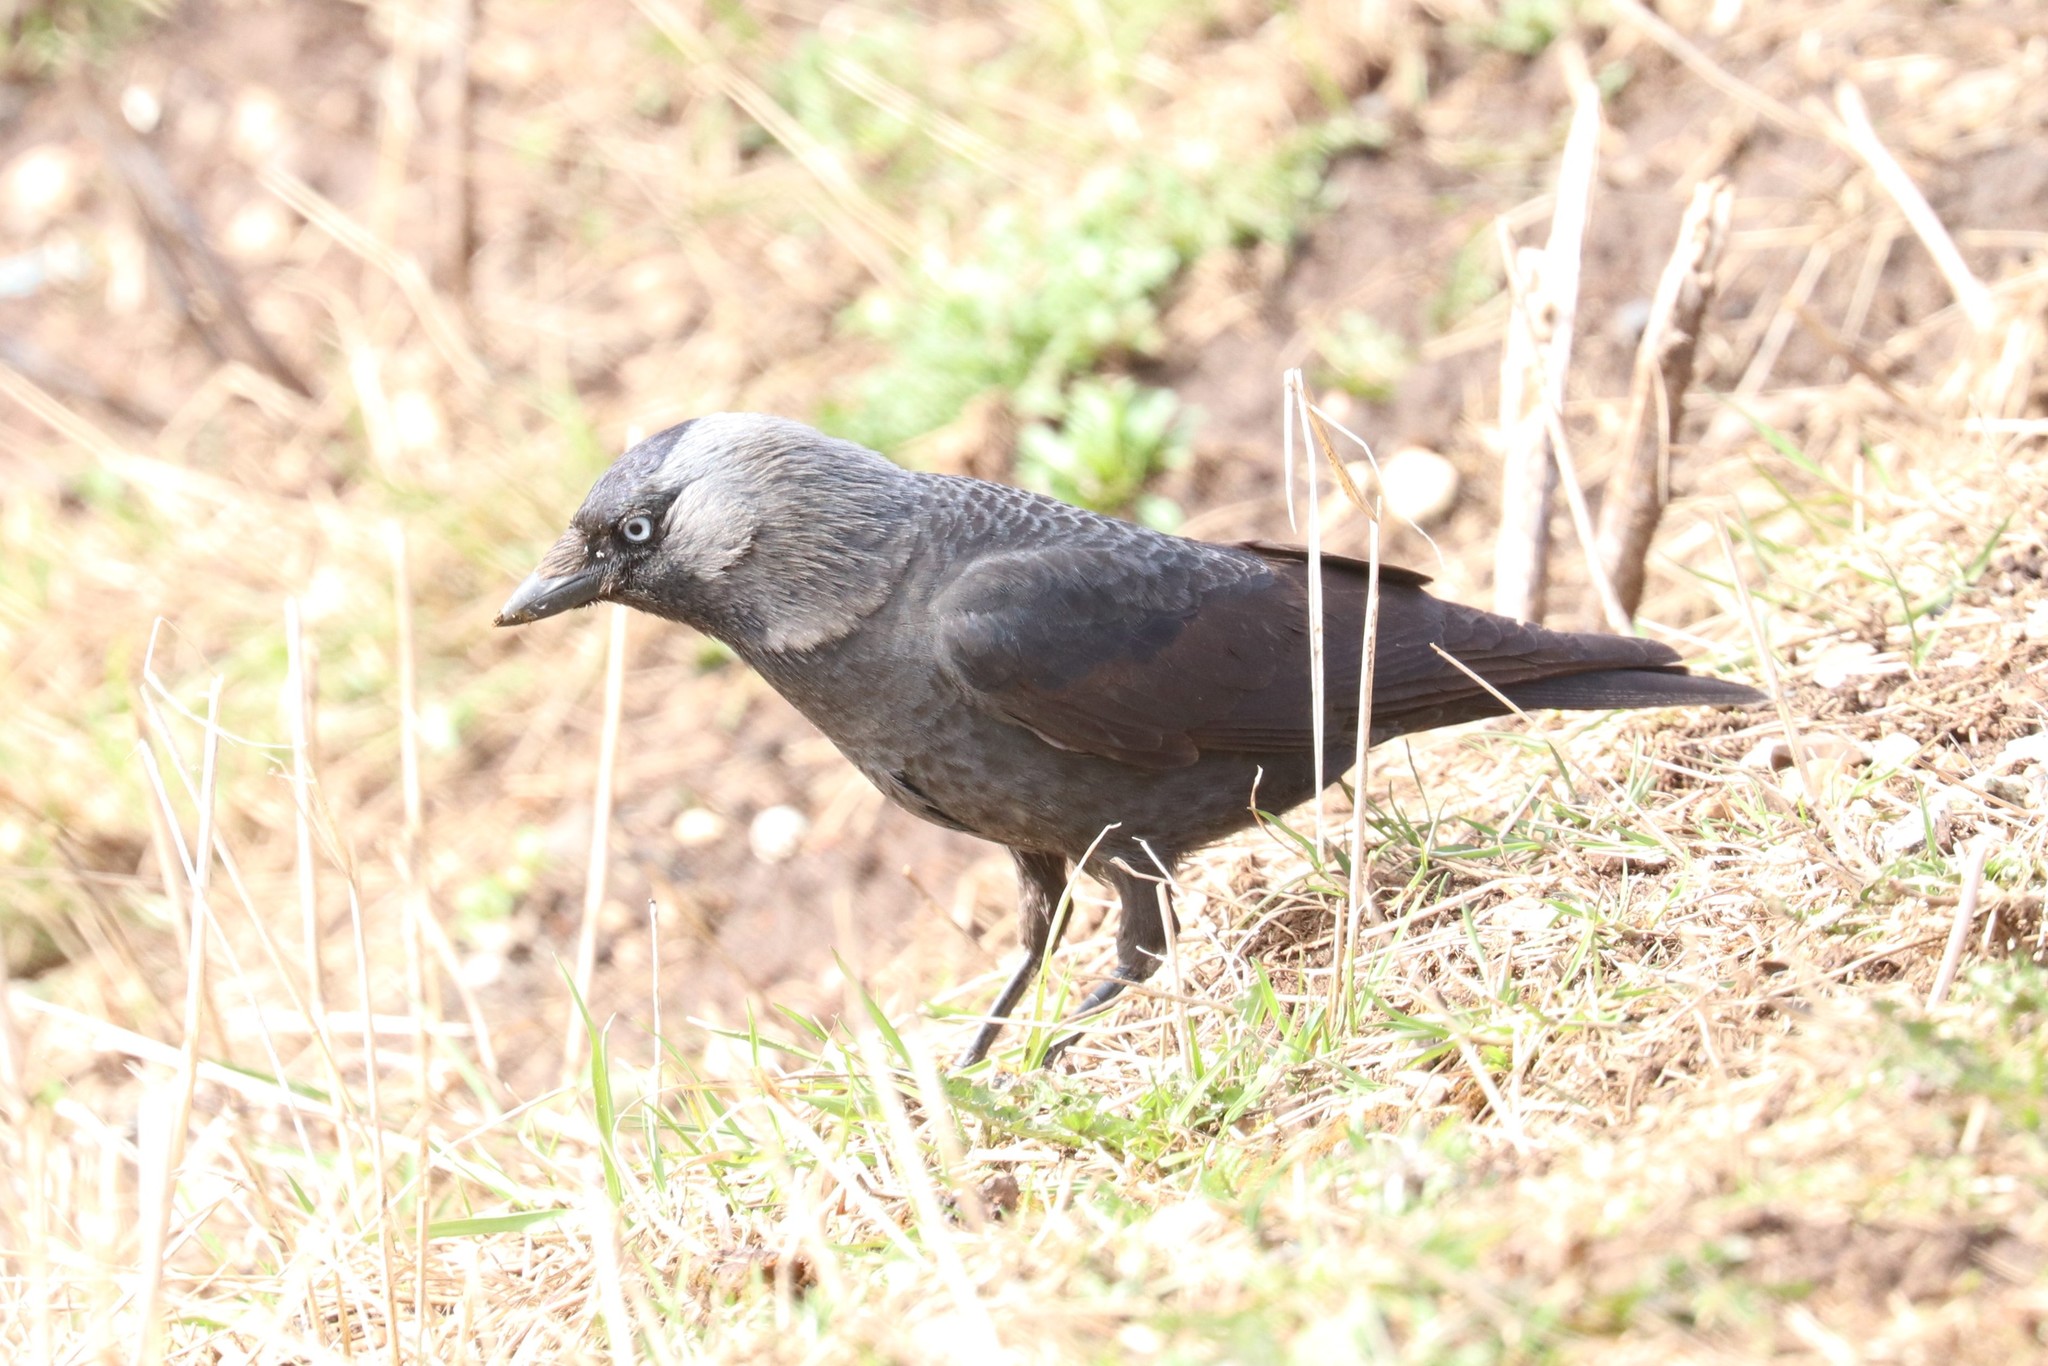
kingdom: Animalia
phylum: Chordata
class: Aves
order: Passeriformes
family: Corvidae
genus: Coloeus
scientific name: Coloeus monedula
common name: Western jackdaw
